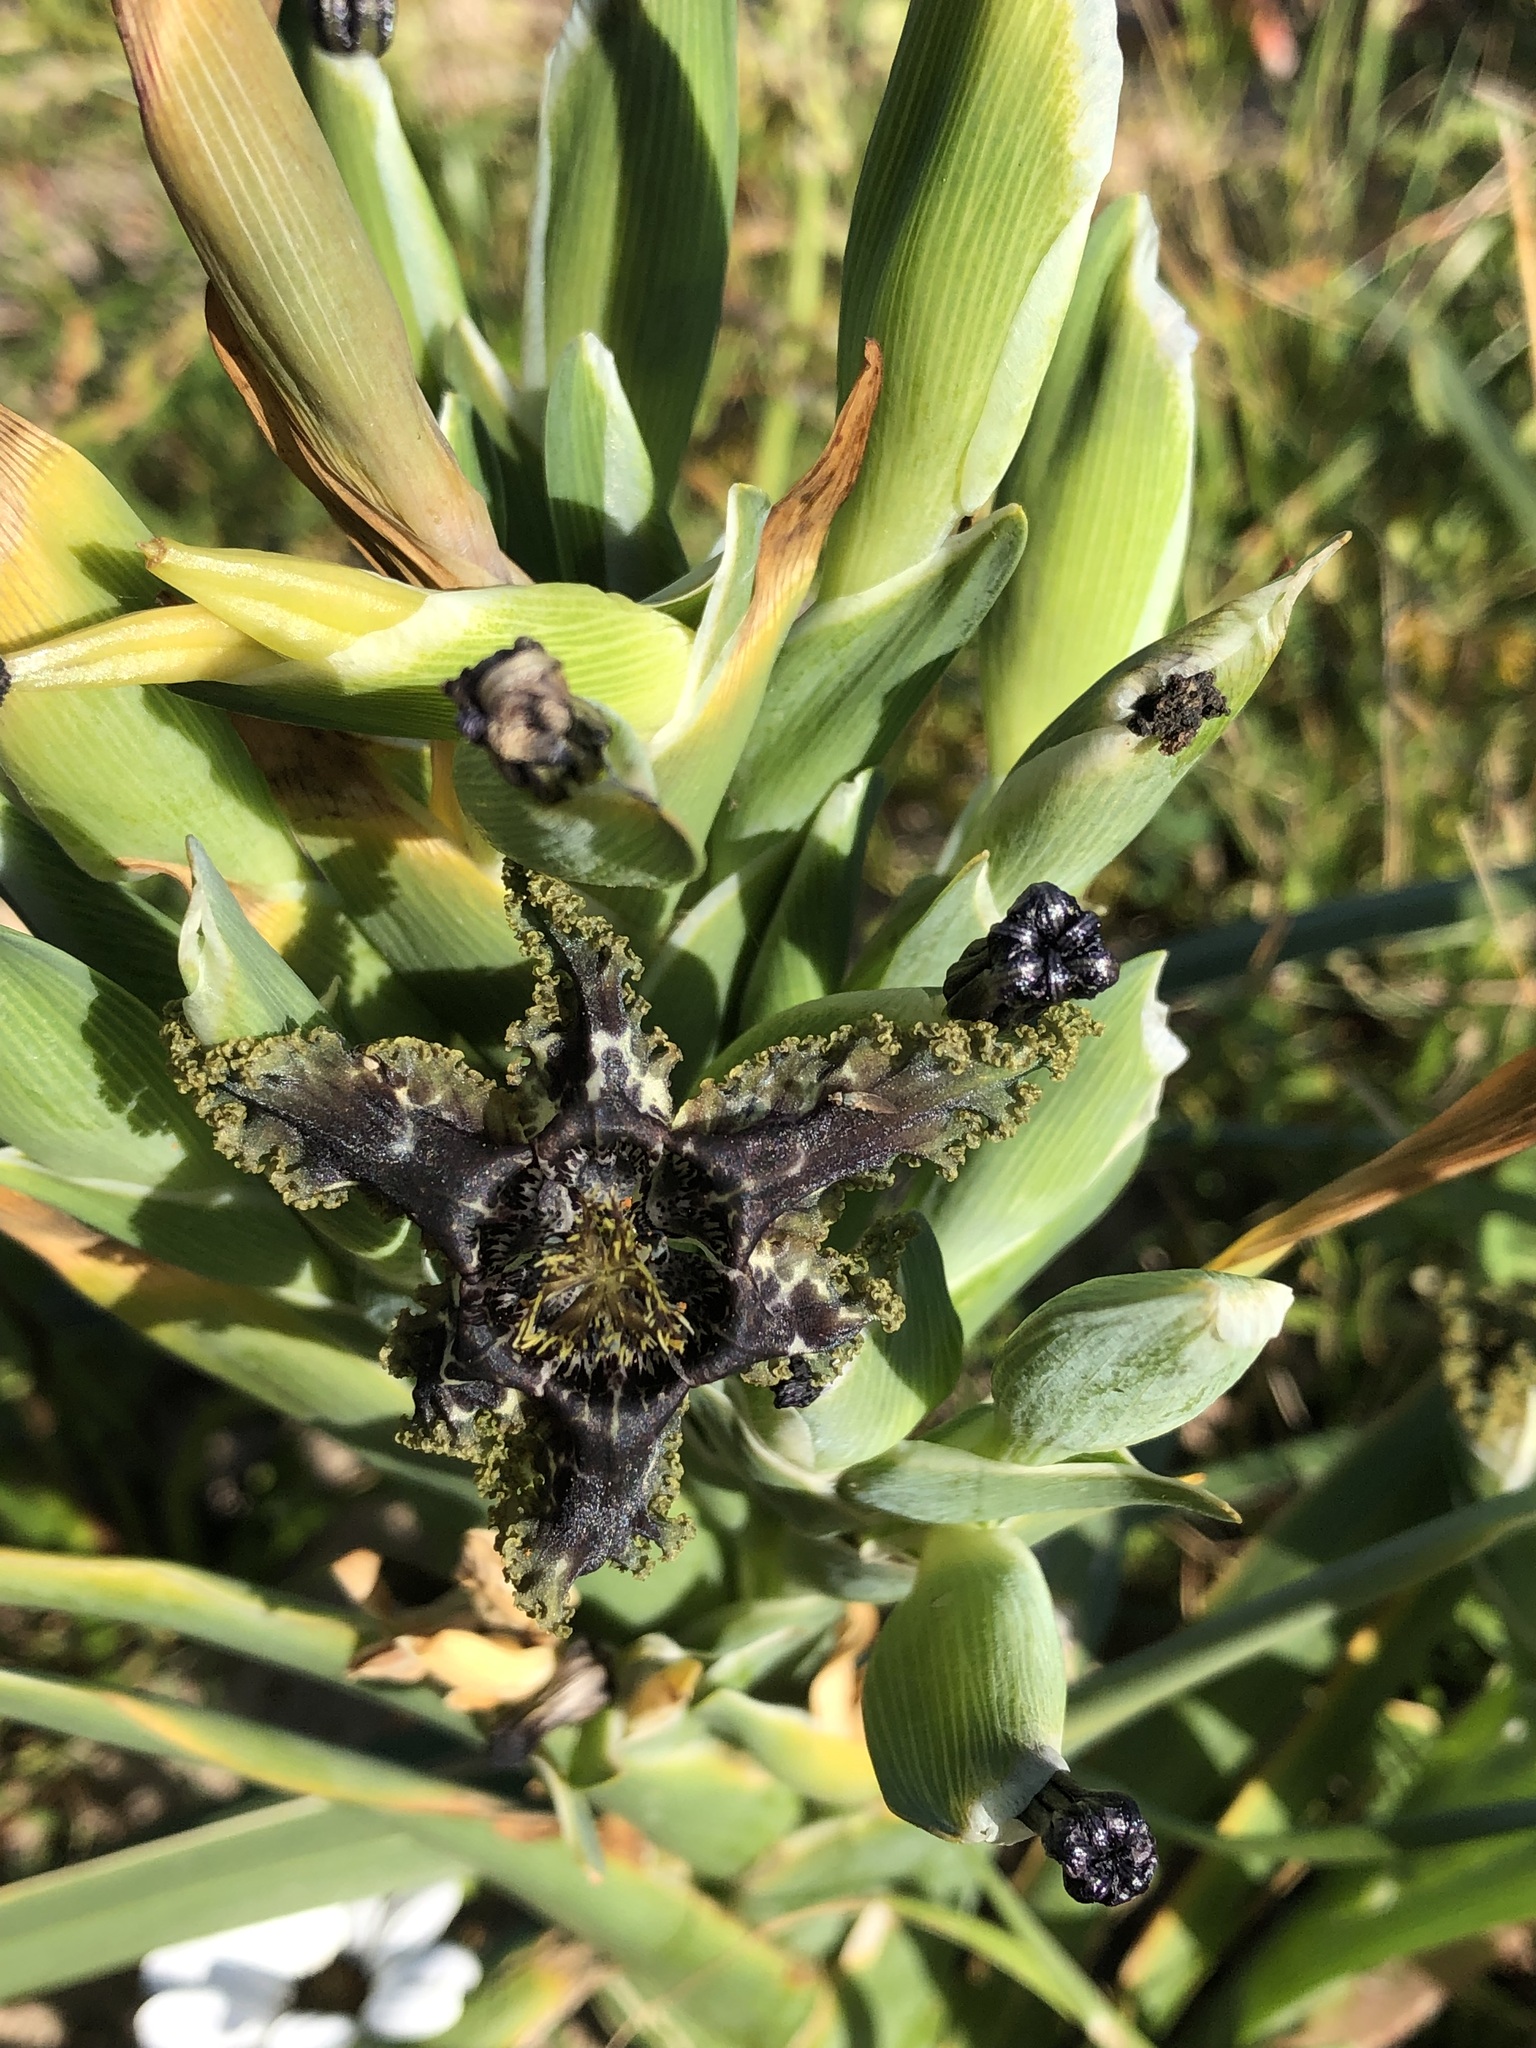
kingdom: Plantae
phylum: Tracheophyta
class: Liliopsida
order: Asparagales
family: Iridaceae
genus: Ferraria
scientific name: Ferraria crispa
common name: Black-flag
